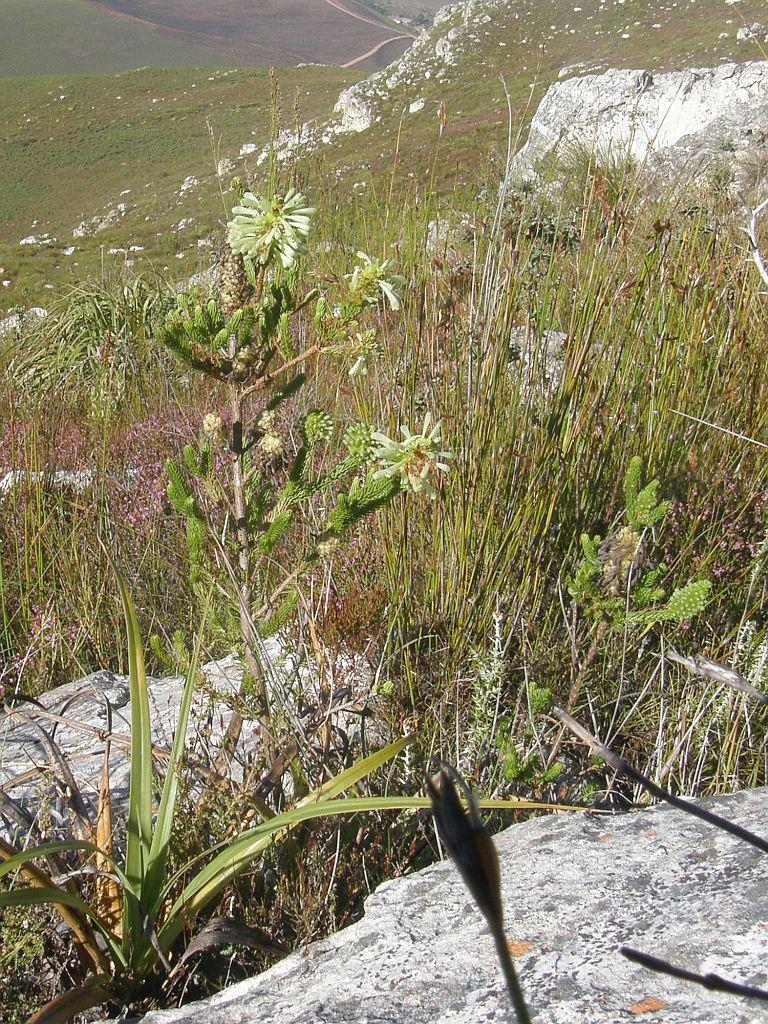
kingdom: Plantae
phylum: Tracheophyta
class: Magnoliopsida
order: Ericales
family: Ericaceae
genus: Erica
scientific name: Erica sessiliflora
